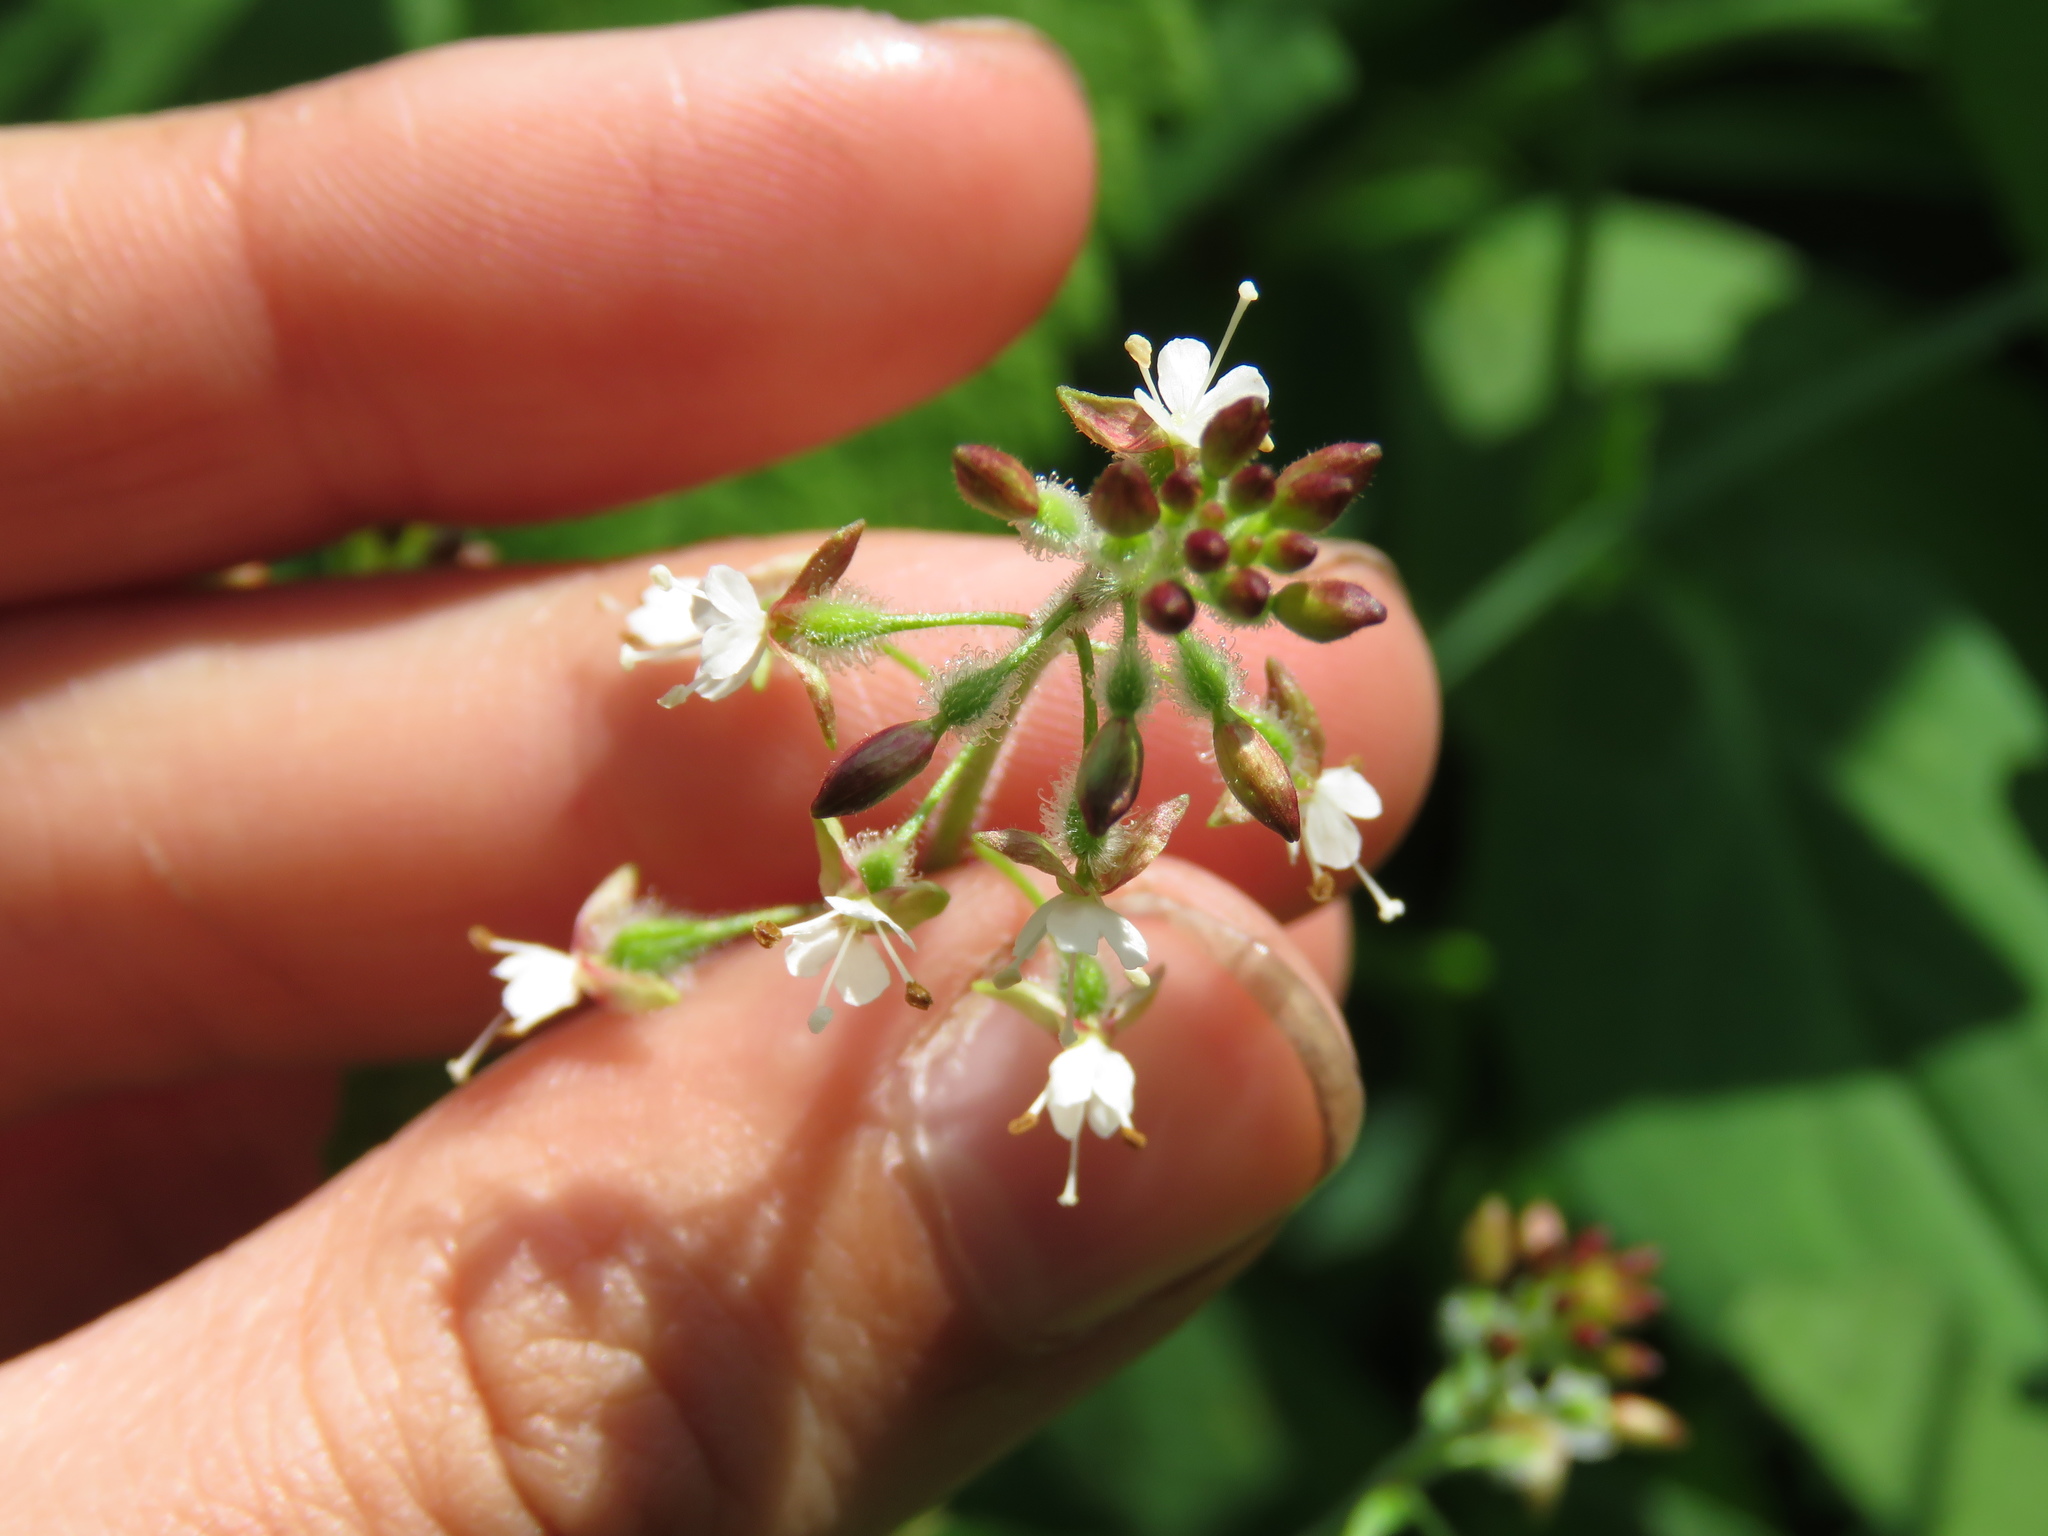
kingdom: Plantae
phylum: Tracheophyta
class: Magnoliopsida
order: Myrtales
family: Onagraceae
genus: Circaea
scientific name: Circaea canadensis
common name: Broad-leaved enchanter's nightshade
